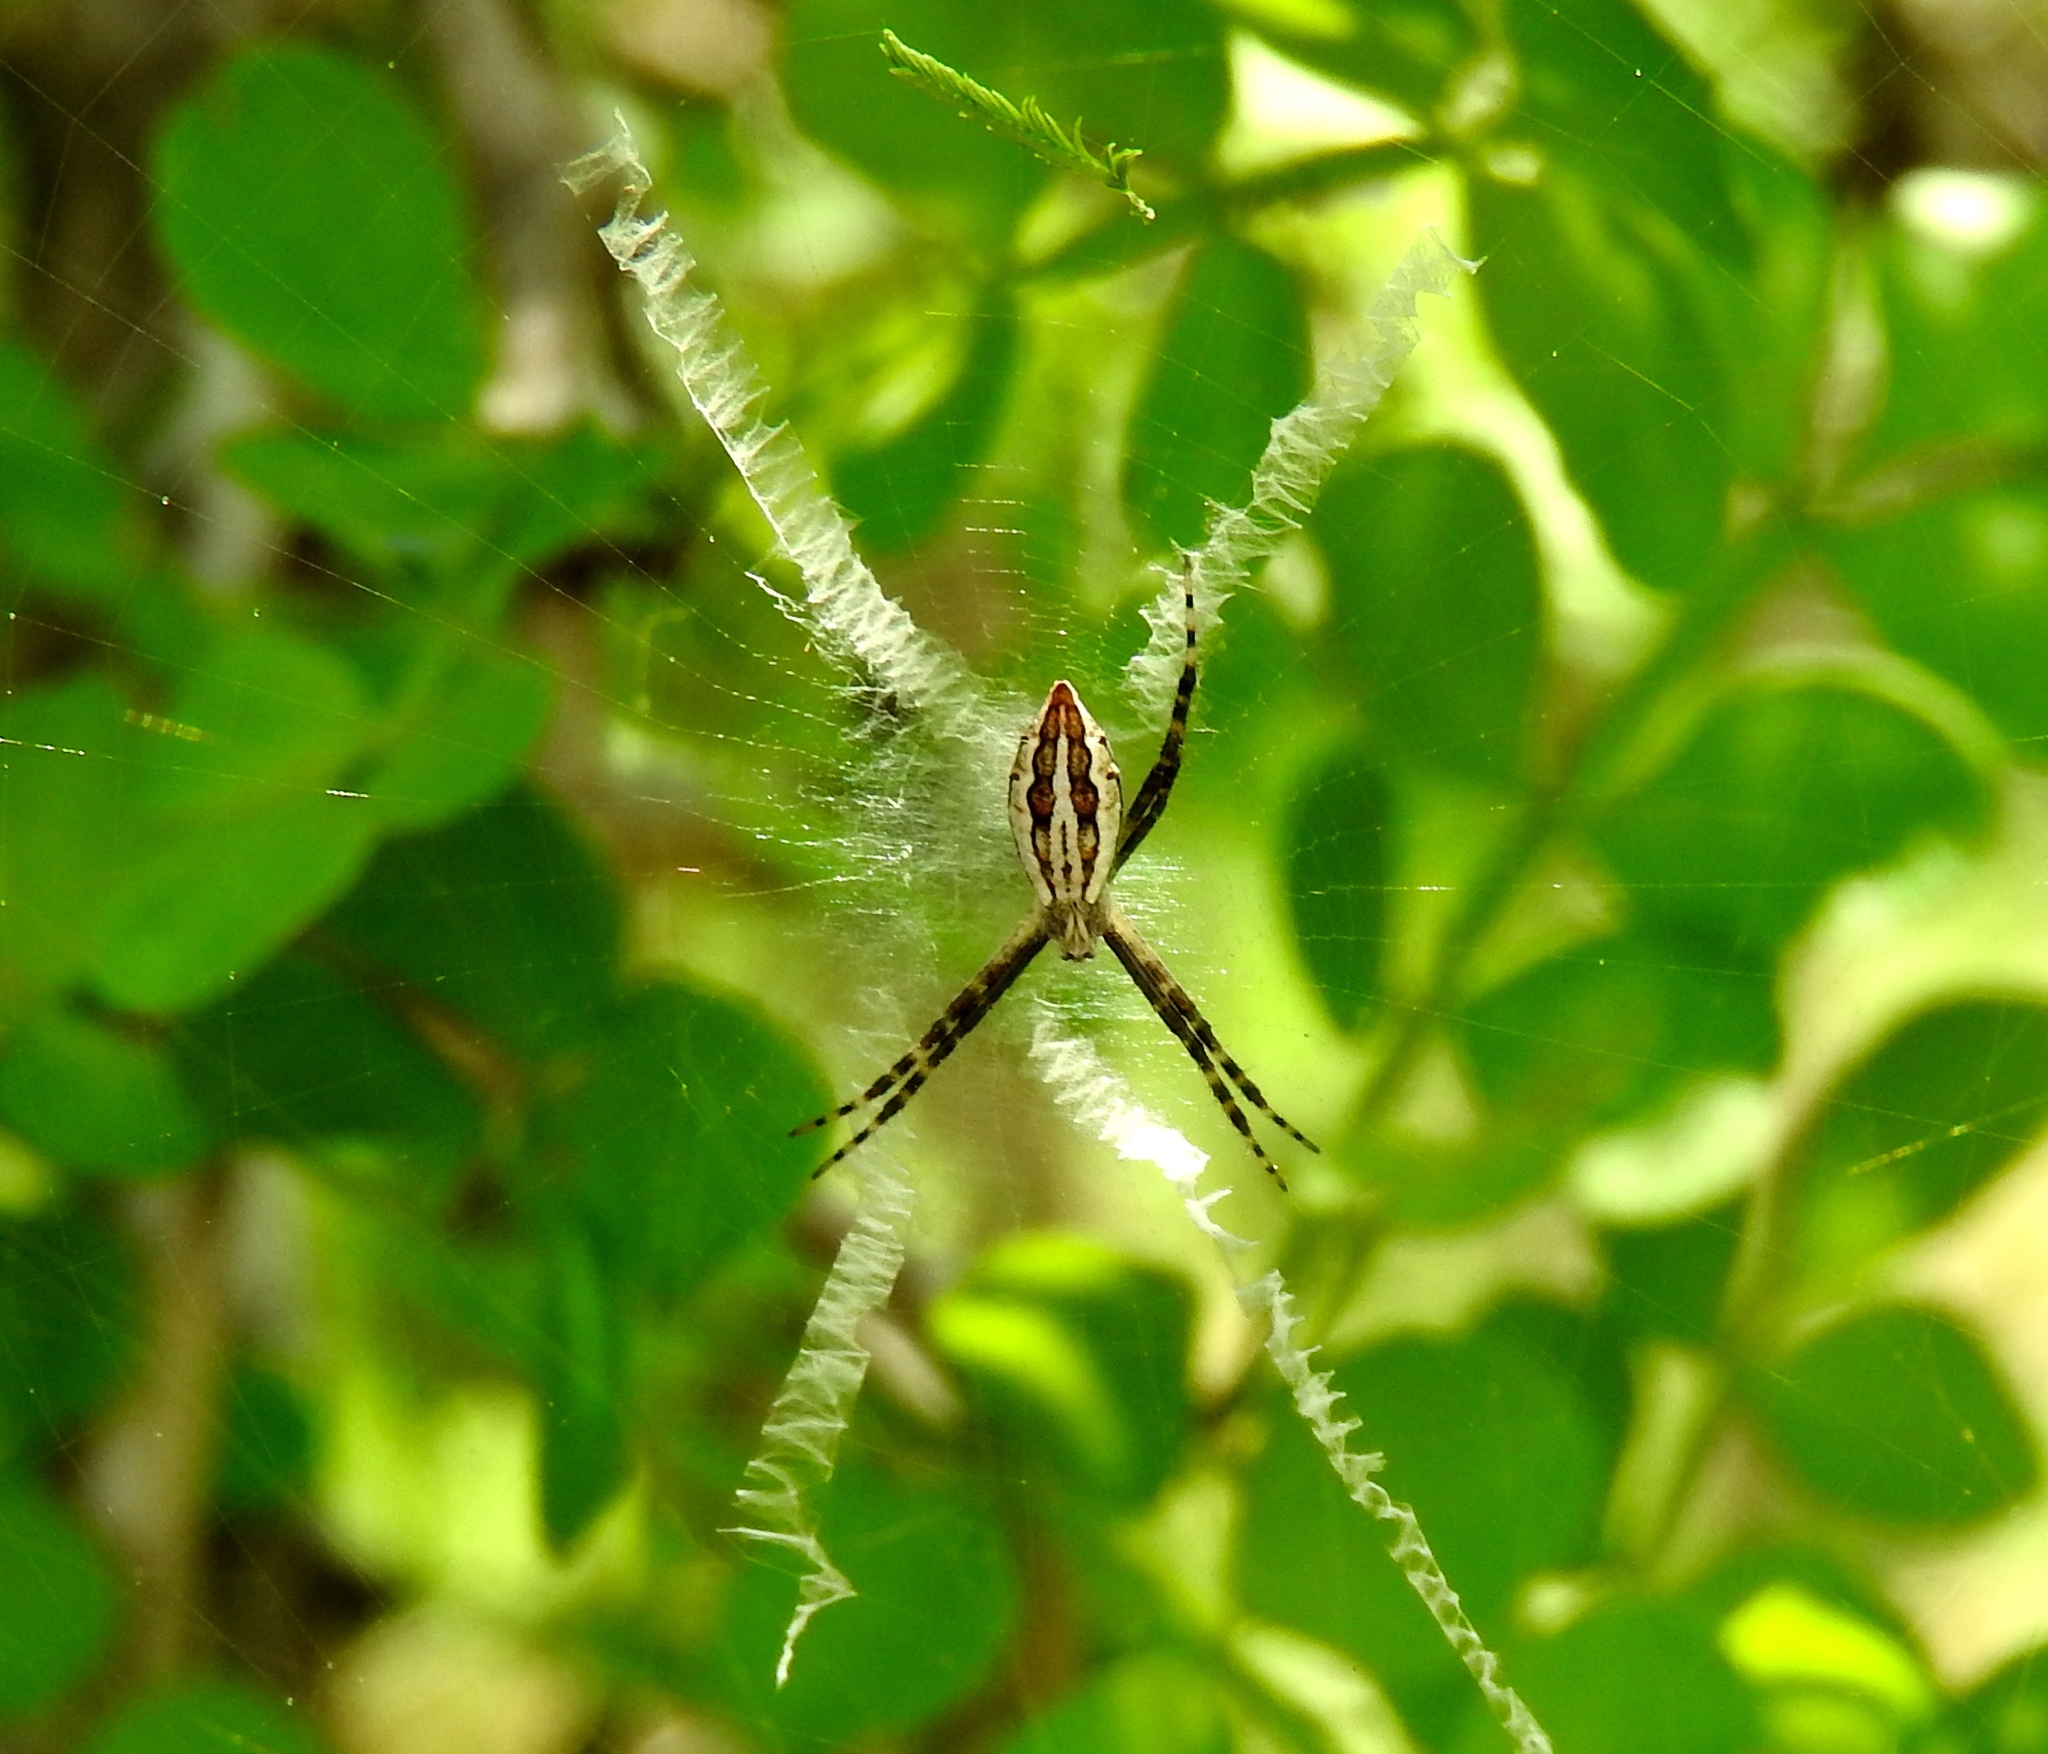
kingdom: Animalia
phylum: Arthropoda
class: Arachnida
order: Araneae
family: Araneidae
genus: Argiope
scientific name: Argiope
